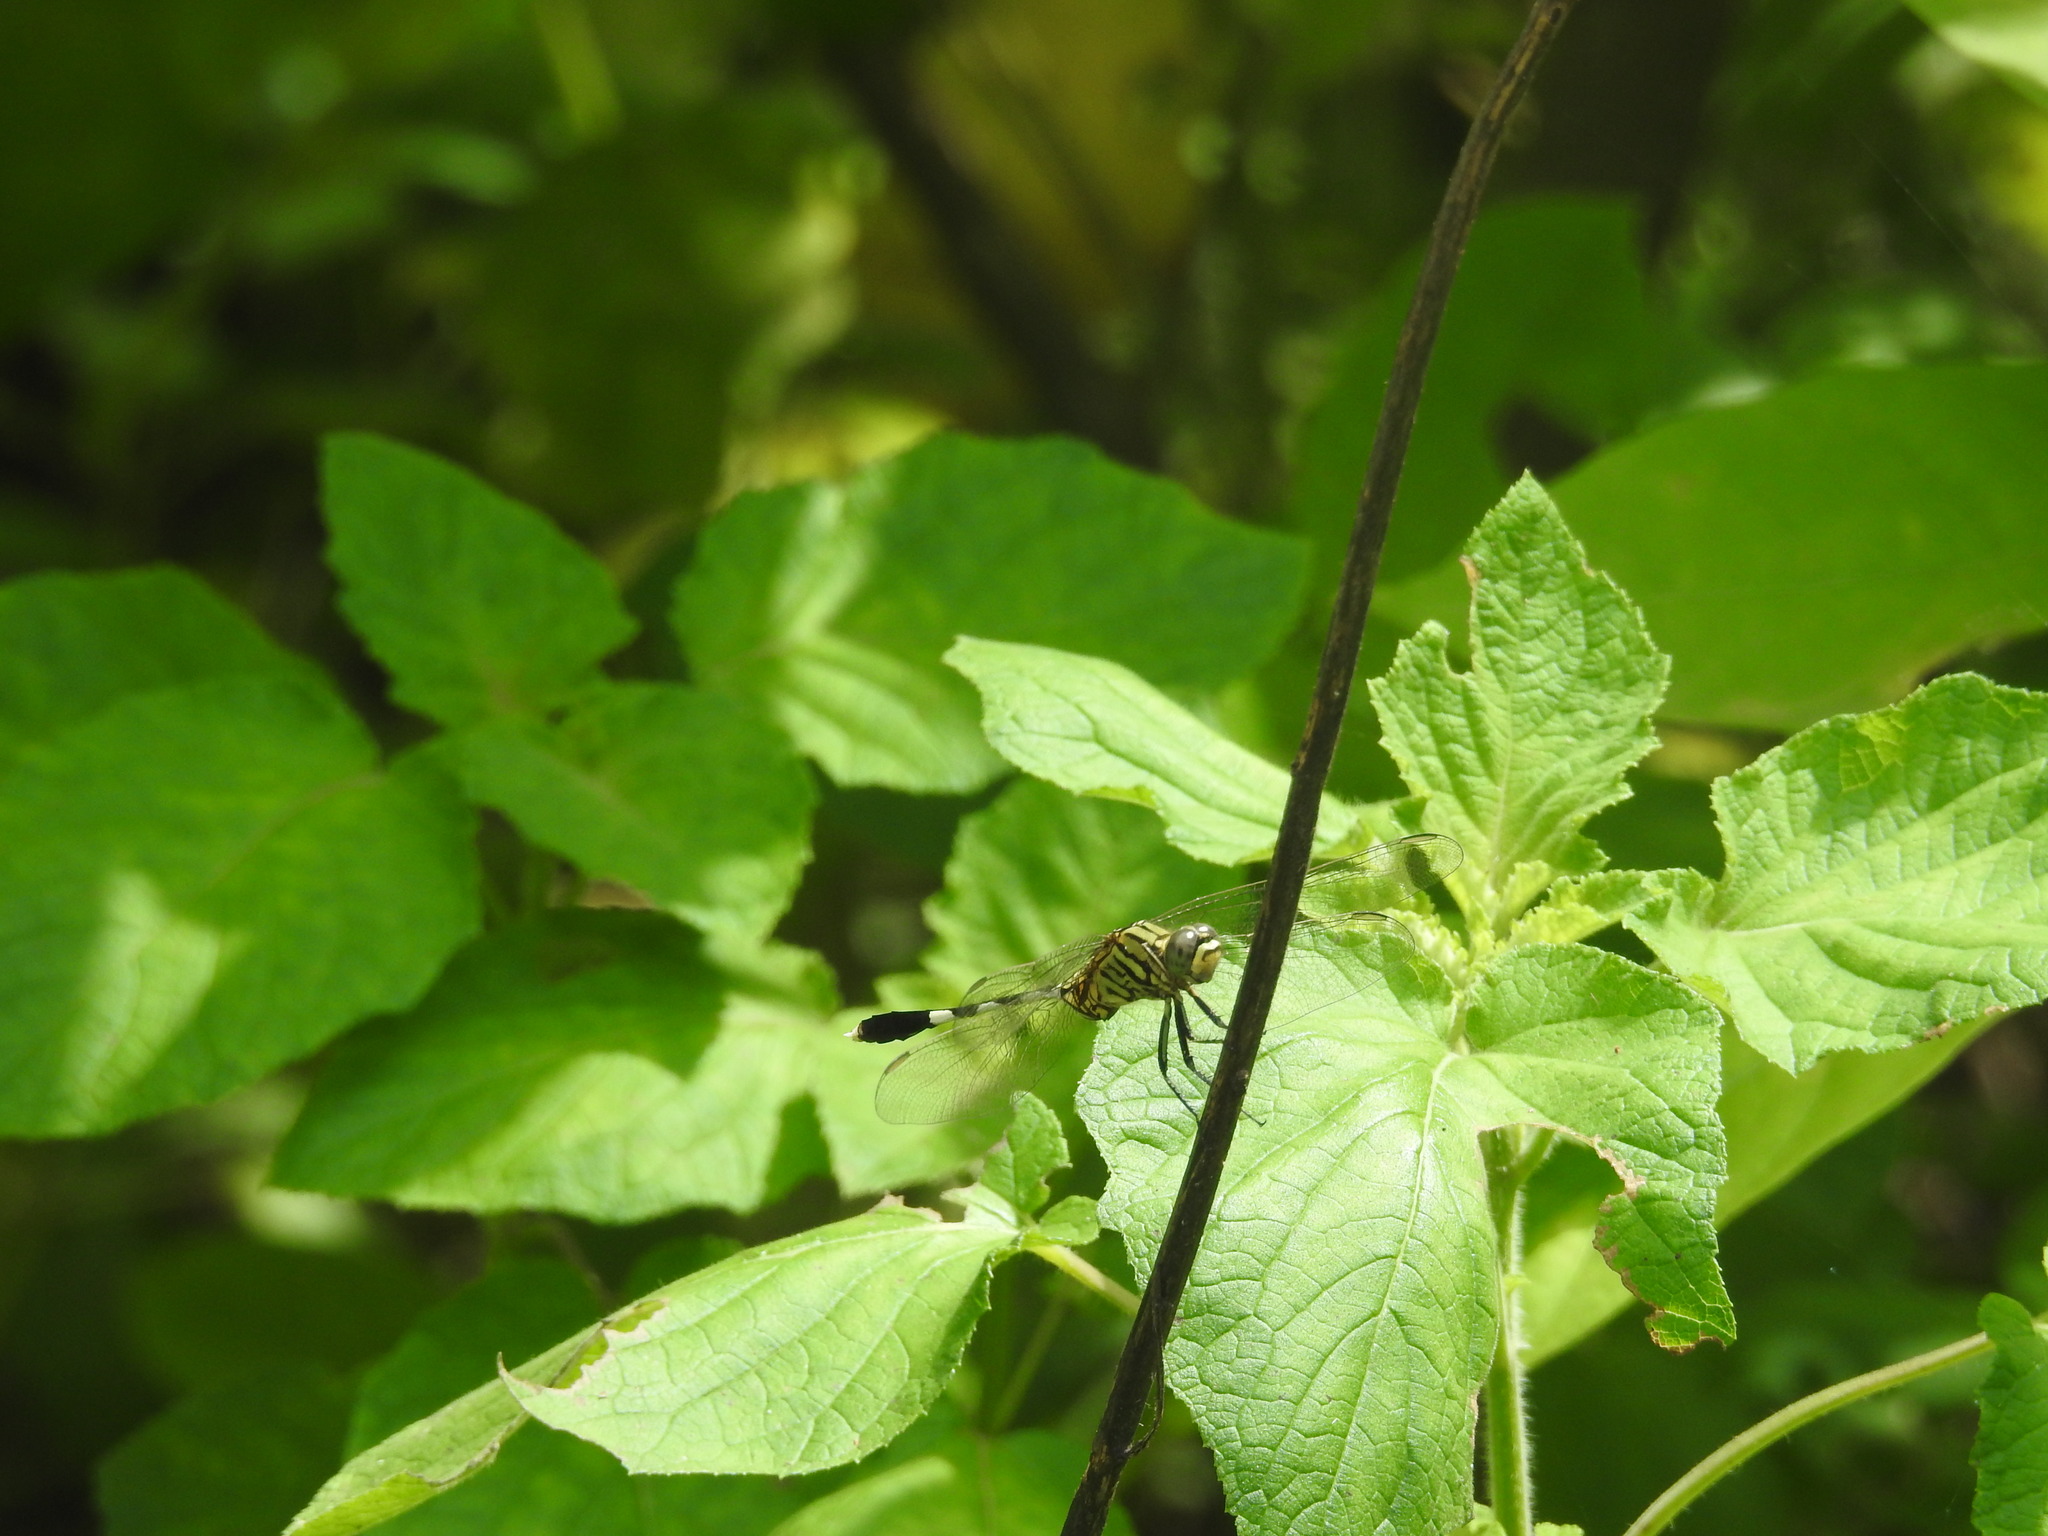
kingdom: Animalia
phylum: Arthropoda
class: Insecta
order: Odonata
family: Libellulidae
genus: Orthetrum
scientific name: Orthetrum sabina
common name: Slender skimmer
